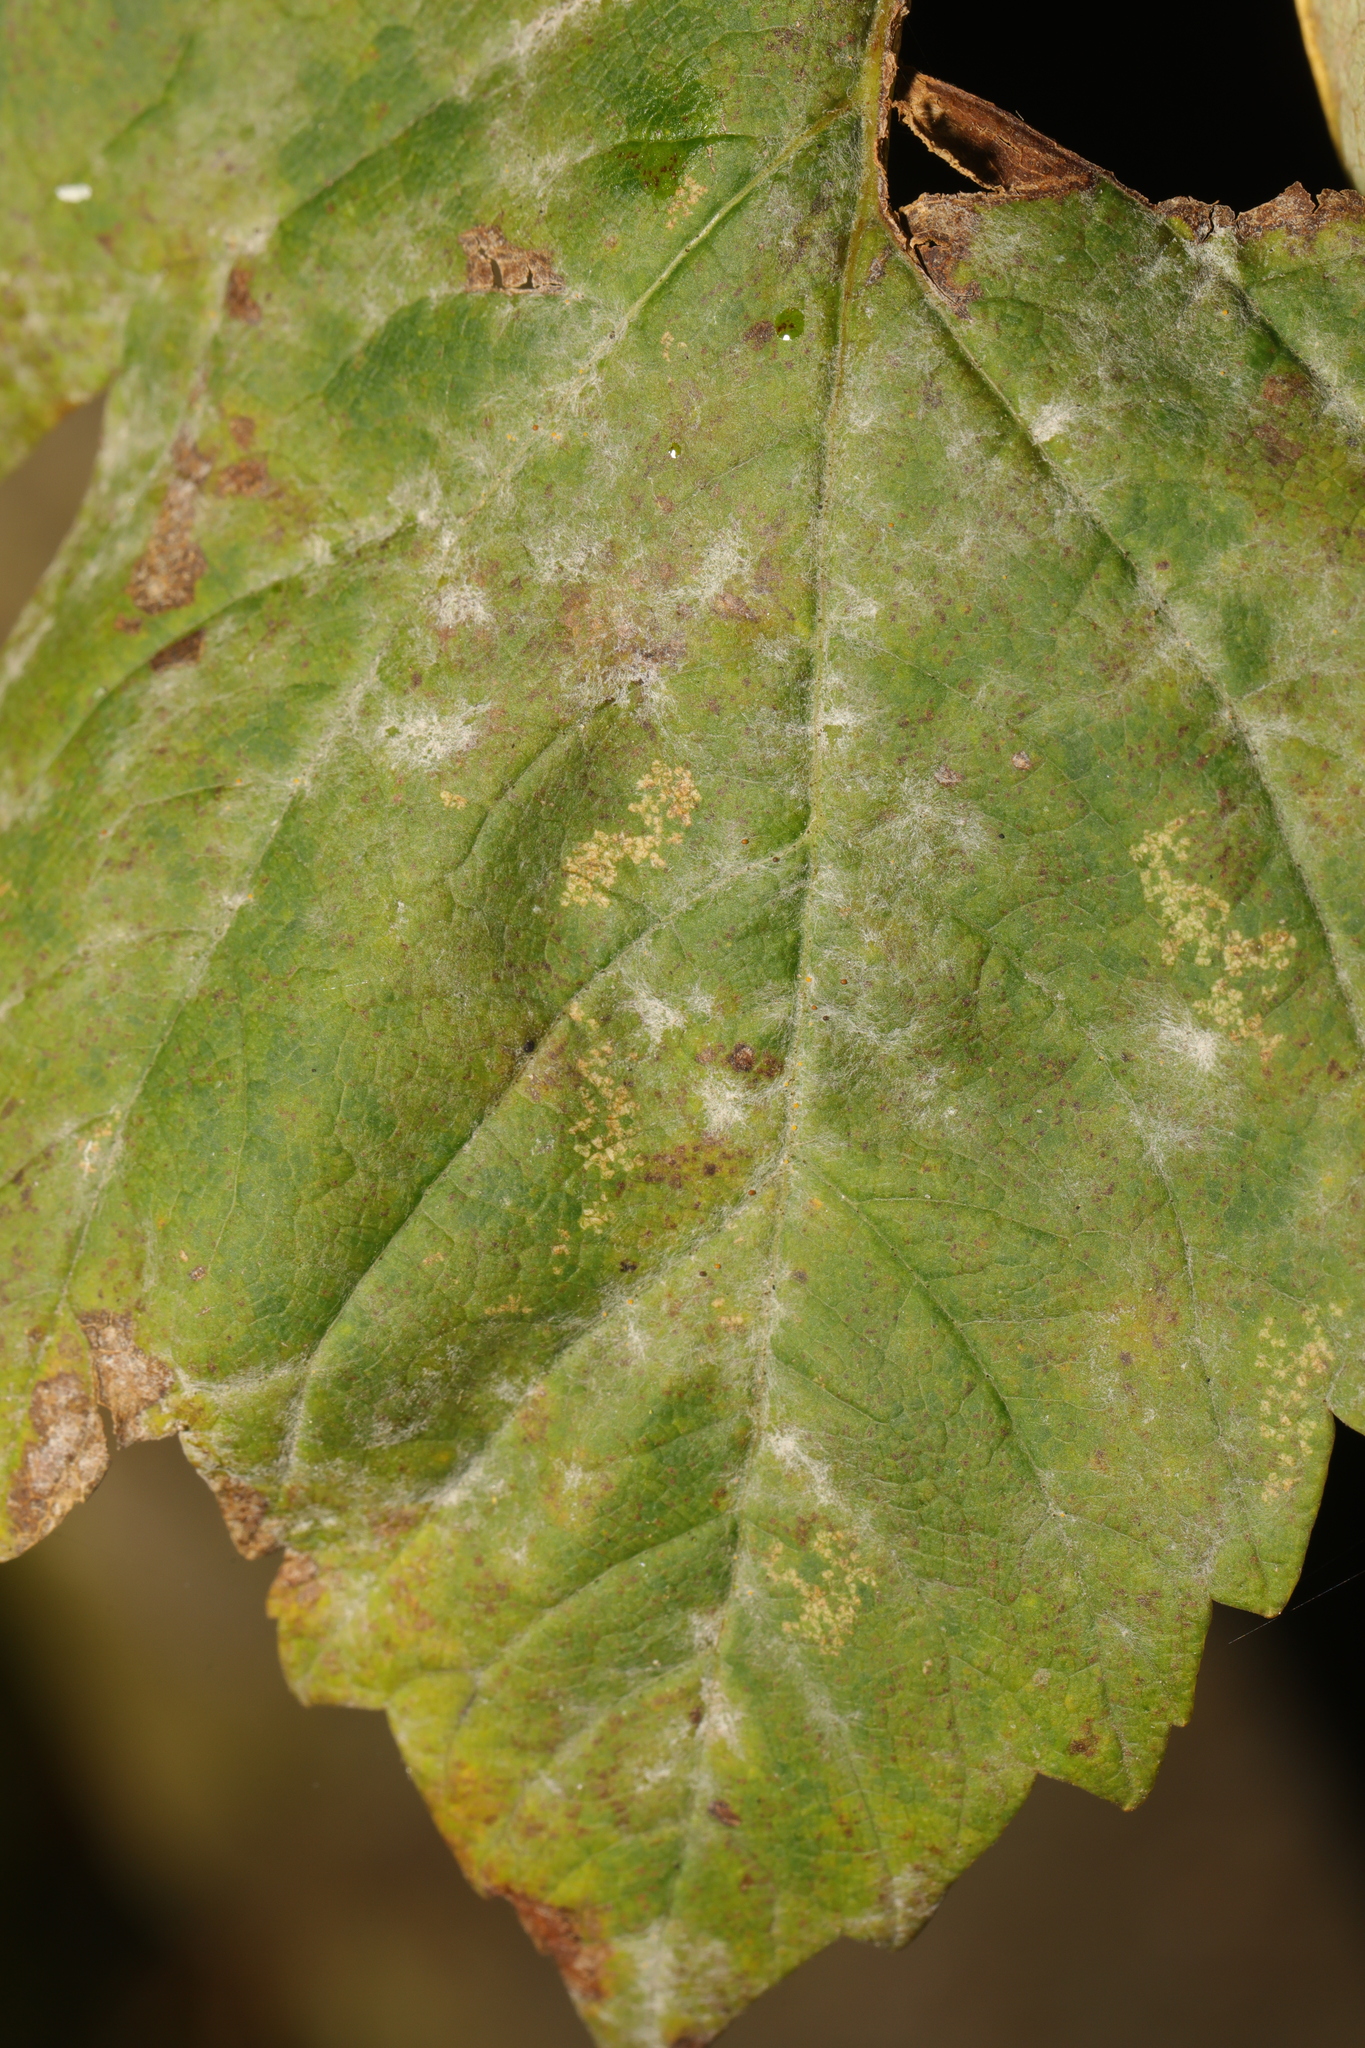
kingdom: Fungi
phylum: Ascomycota
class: Leotiomycetes
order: Helotiales
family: Erysiphaceae
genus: Sawadaea
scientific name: Sawadaea bicornis
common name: Maple mildew
